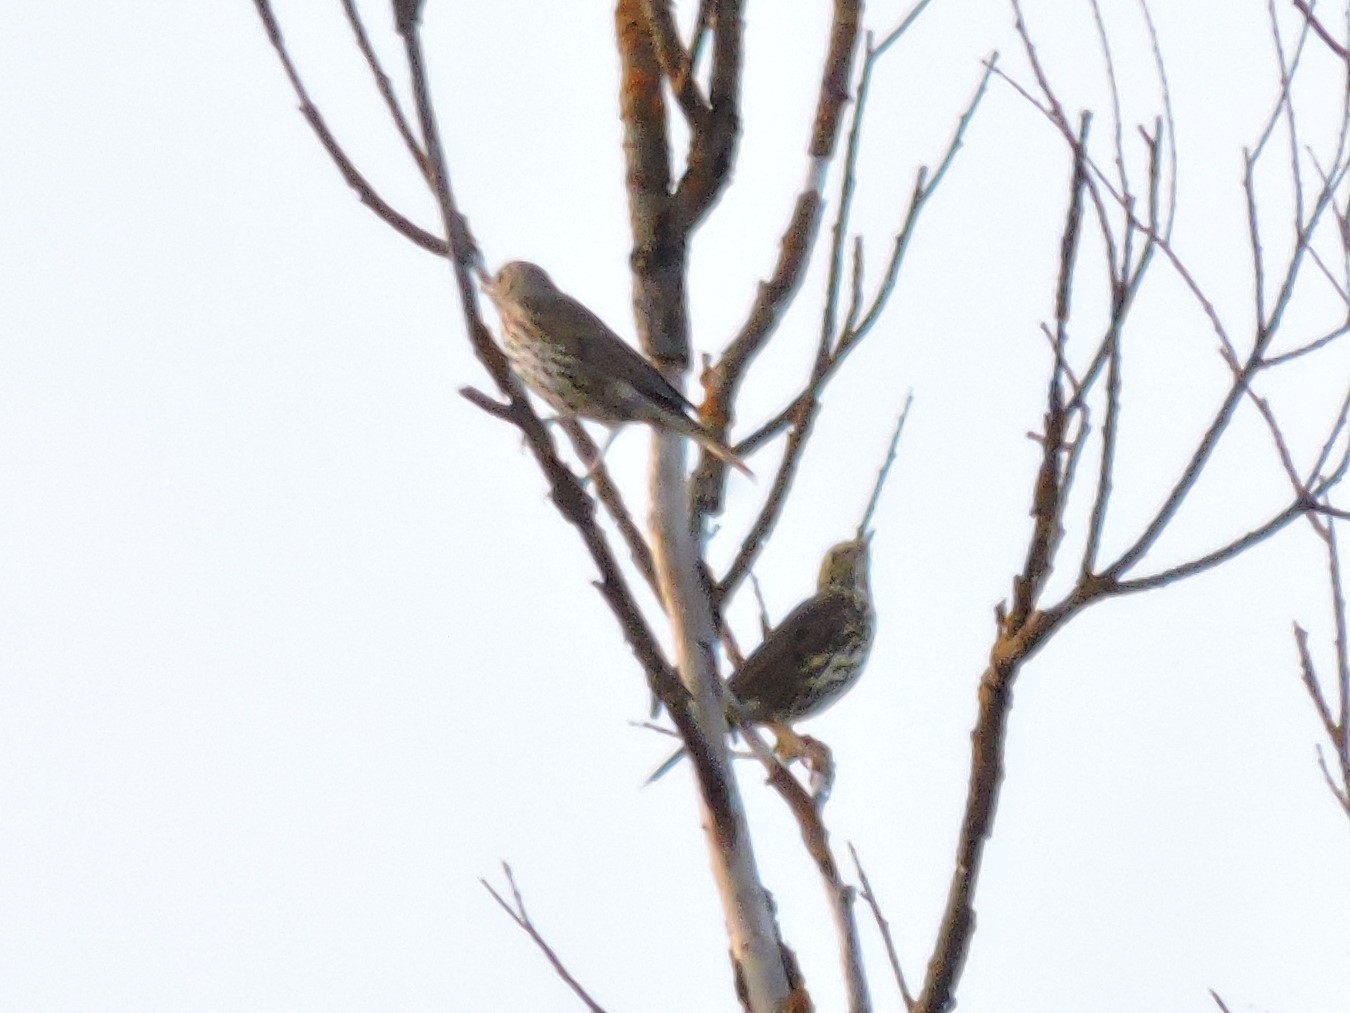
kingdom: Animalia
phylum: Chordata
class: Aves
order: Passeriformes
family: Turdidae
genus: Turdus
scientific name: Turdus philomelos
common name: Song thrush
